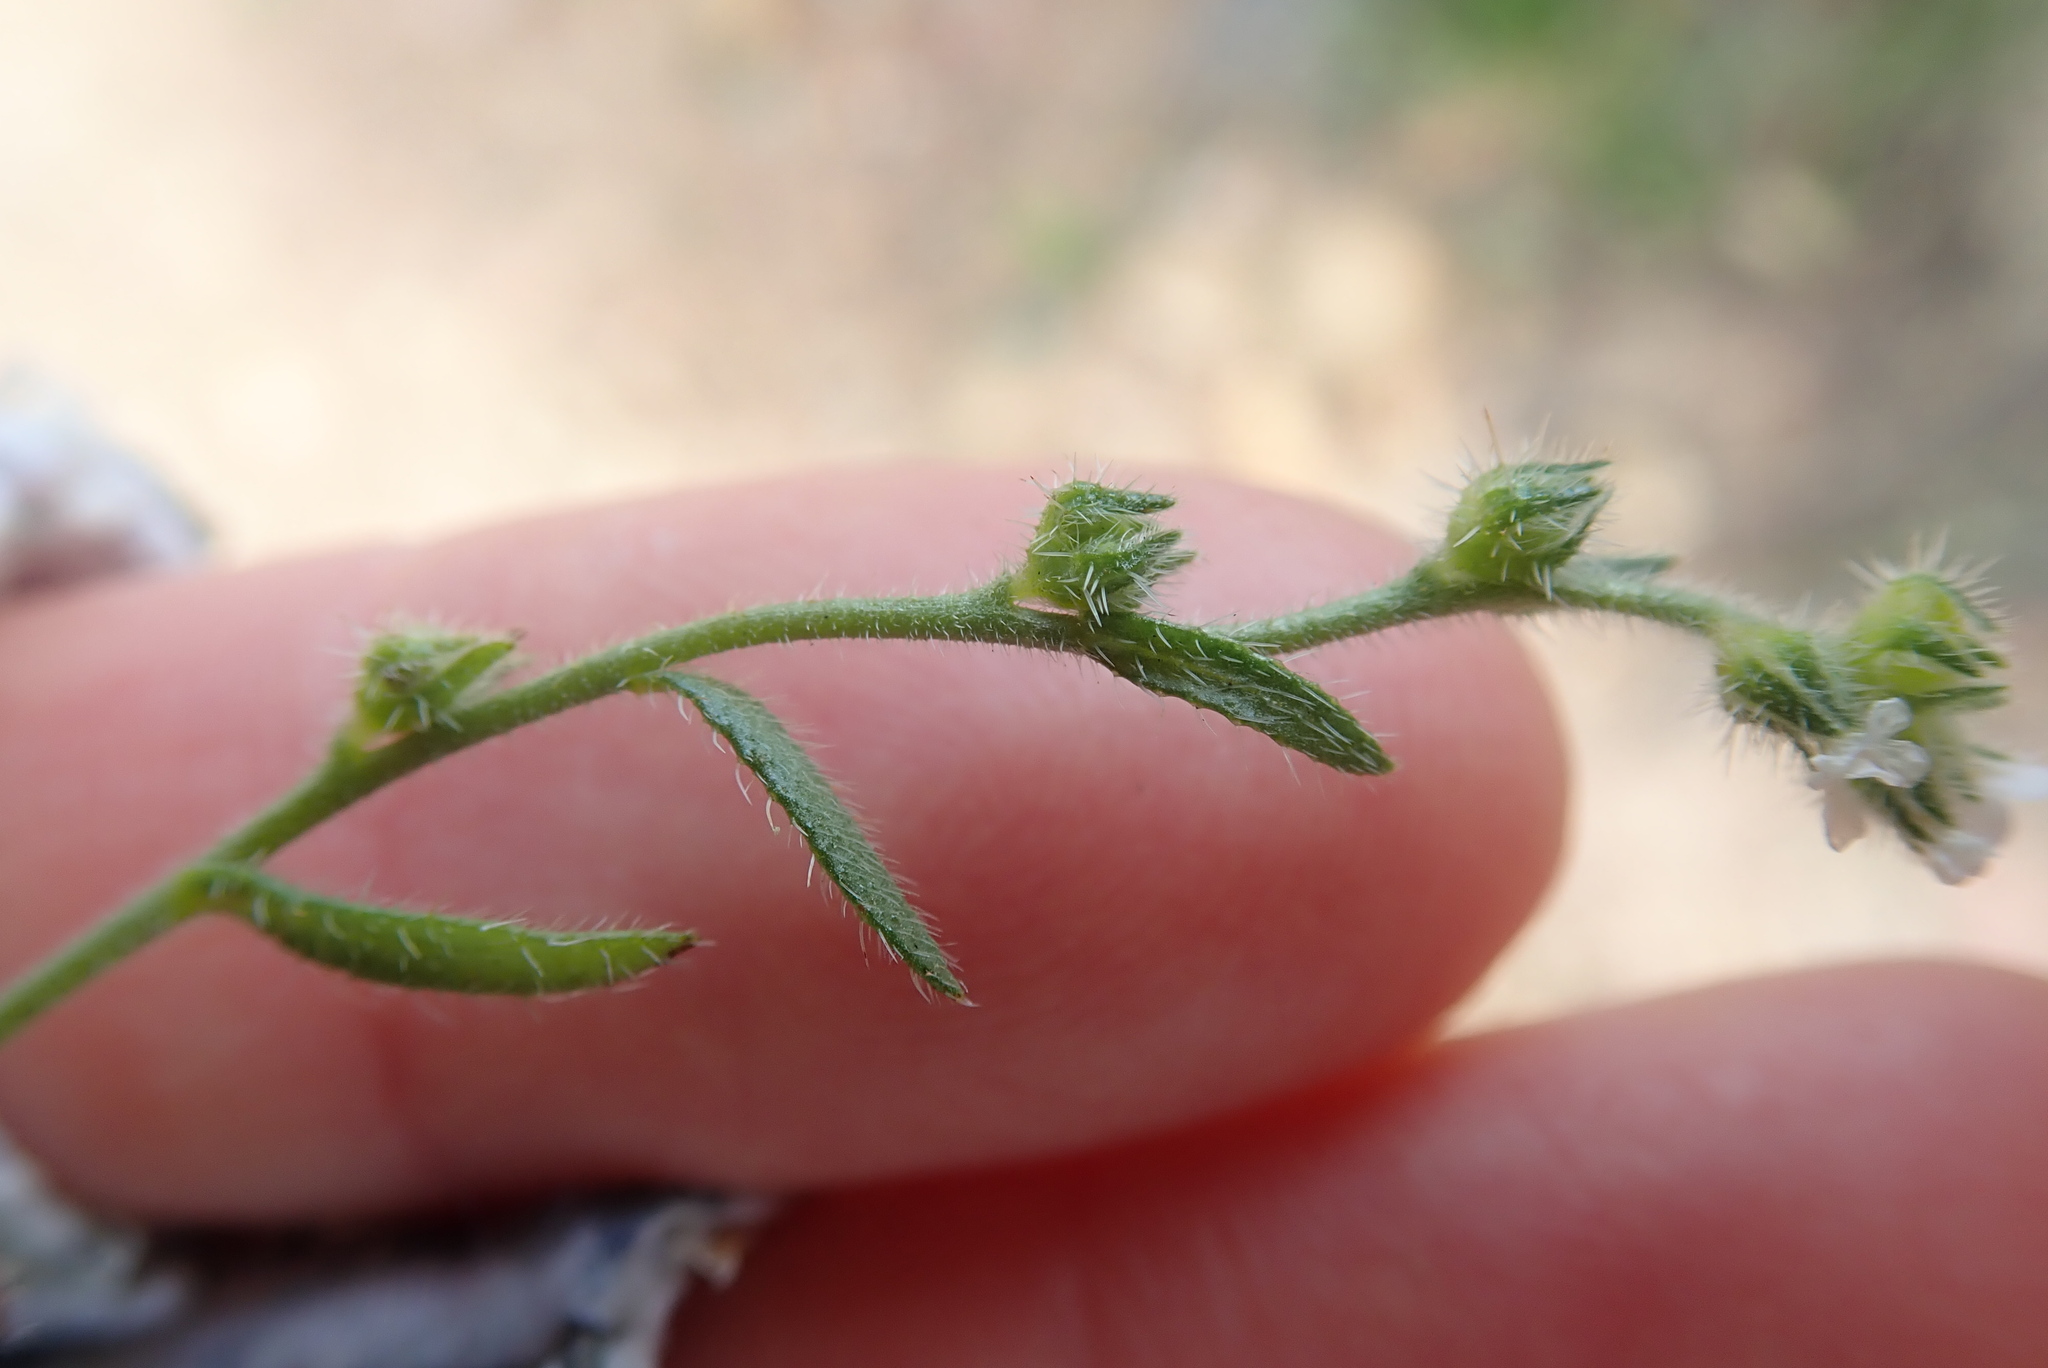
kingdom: Plantae
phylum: Tracheophyta
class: Magnoliopsida
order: Boraginales
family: Boraginaceae
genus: Plagiobothrys
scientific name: Plagiobothrys collinus
